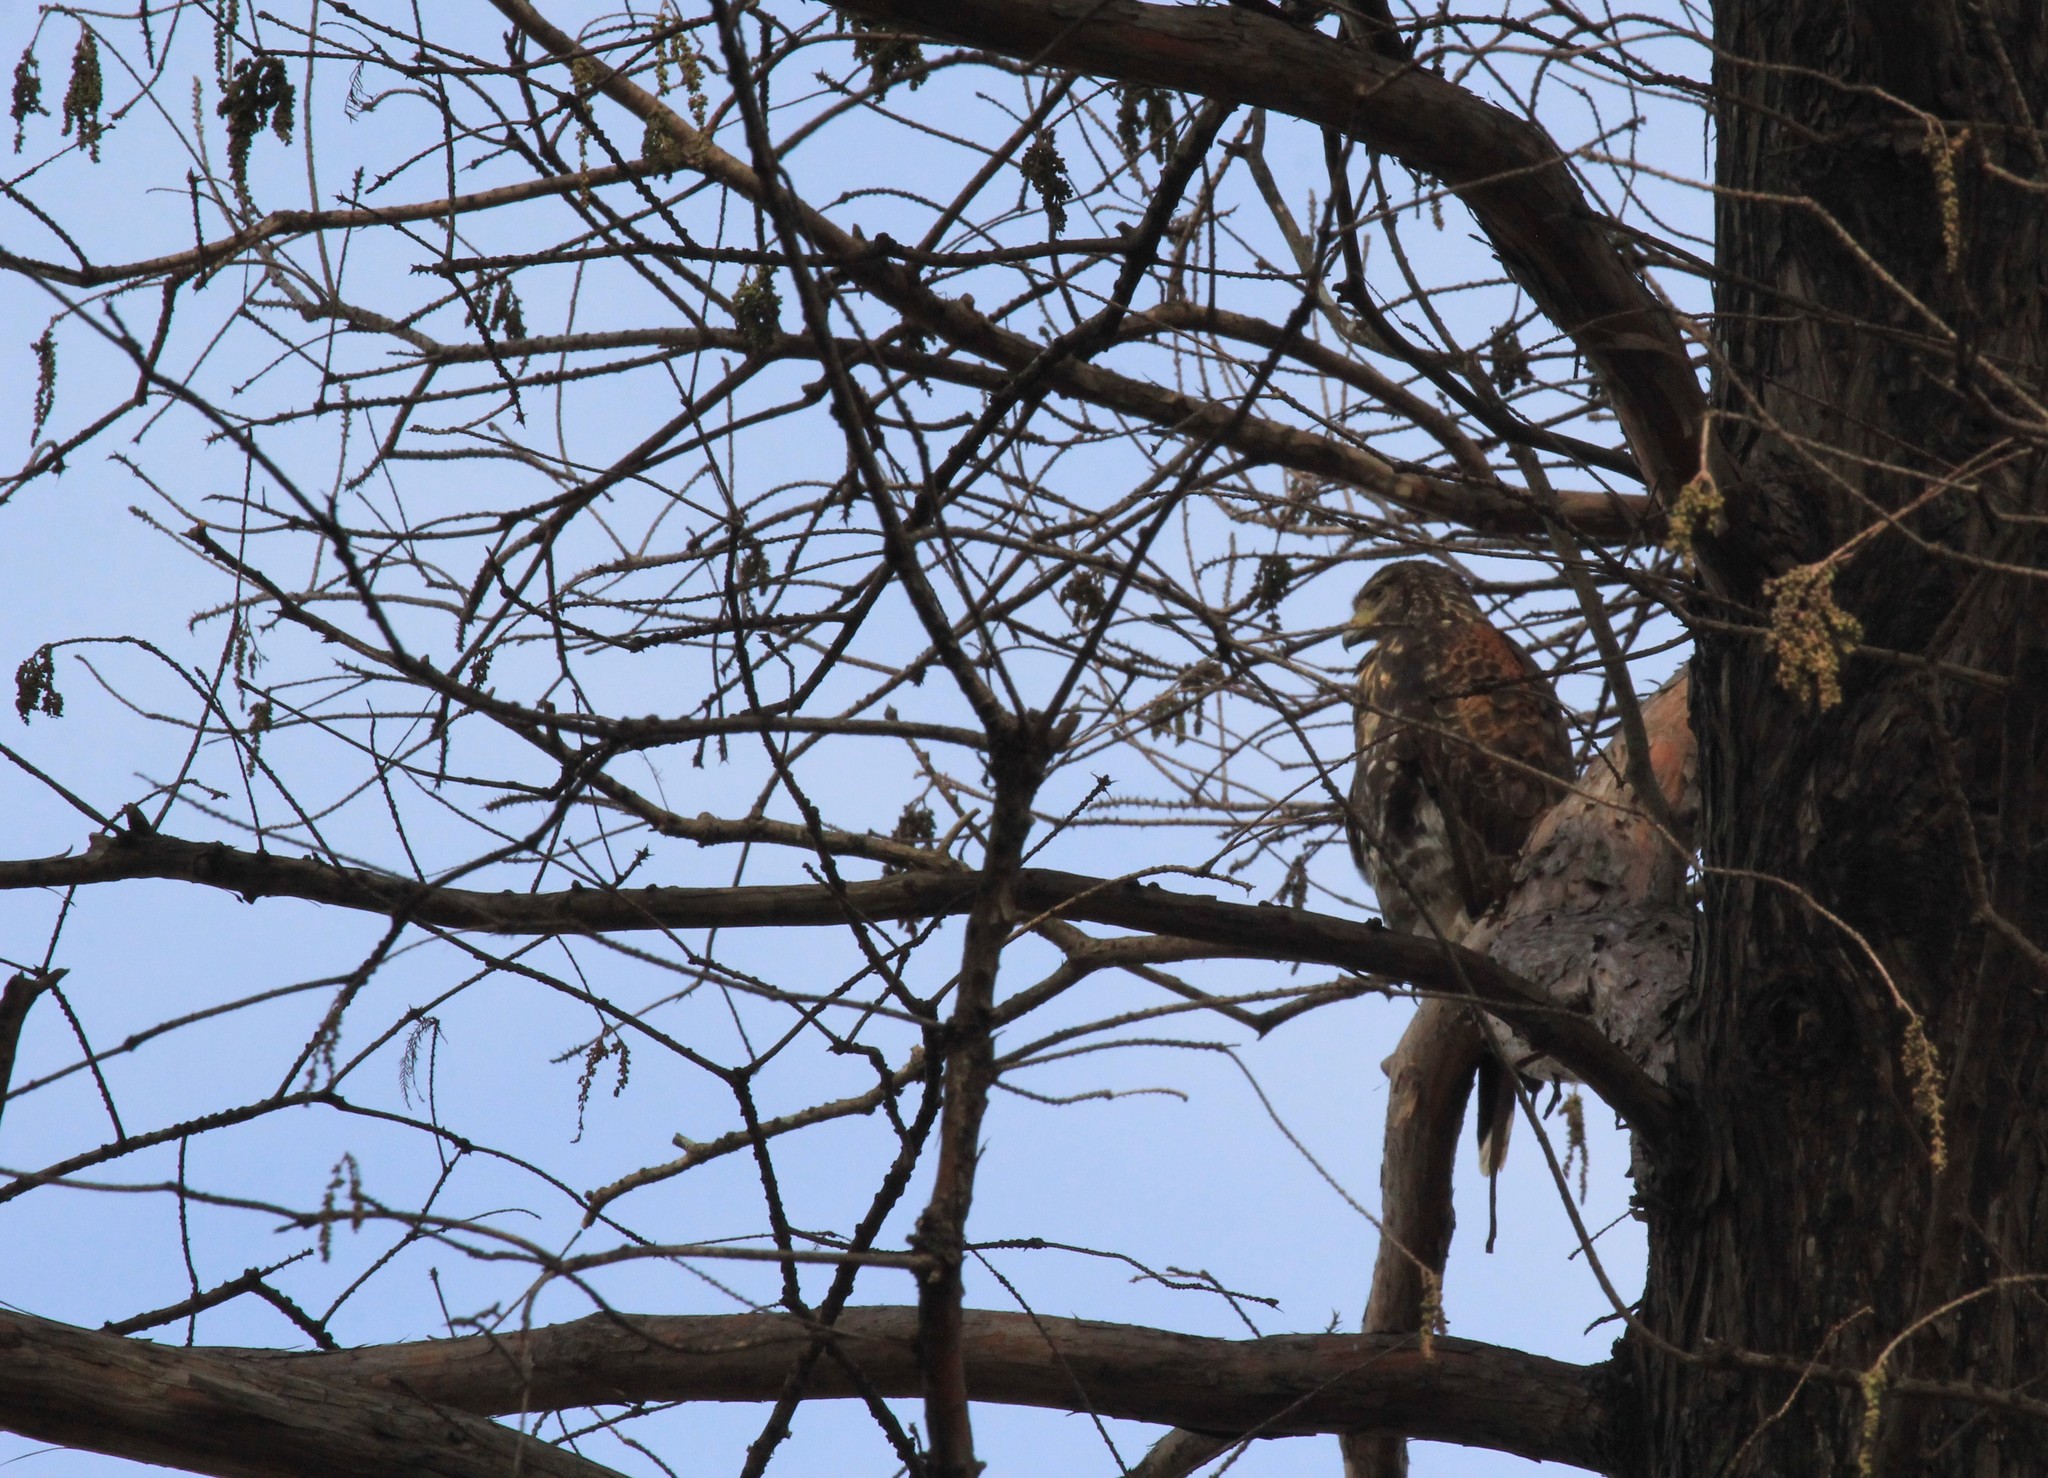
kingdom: Animalia
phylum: Chordata
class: Aves
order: Accipitriformes
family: Accipitridae
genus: Parabuteo
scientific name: Parabuteo unicinctus
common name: Harris's hawk
